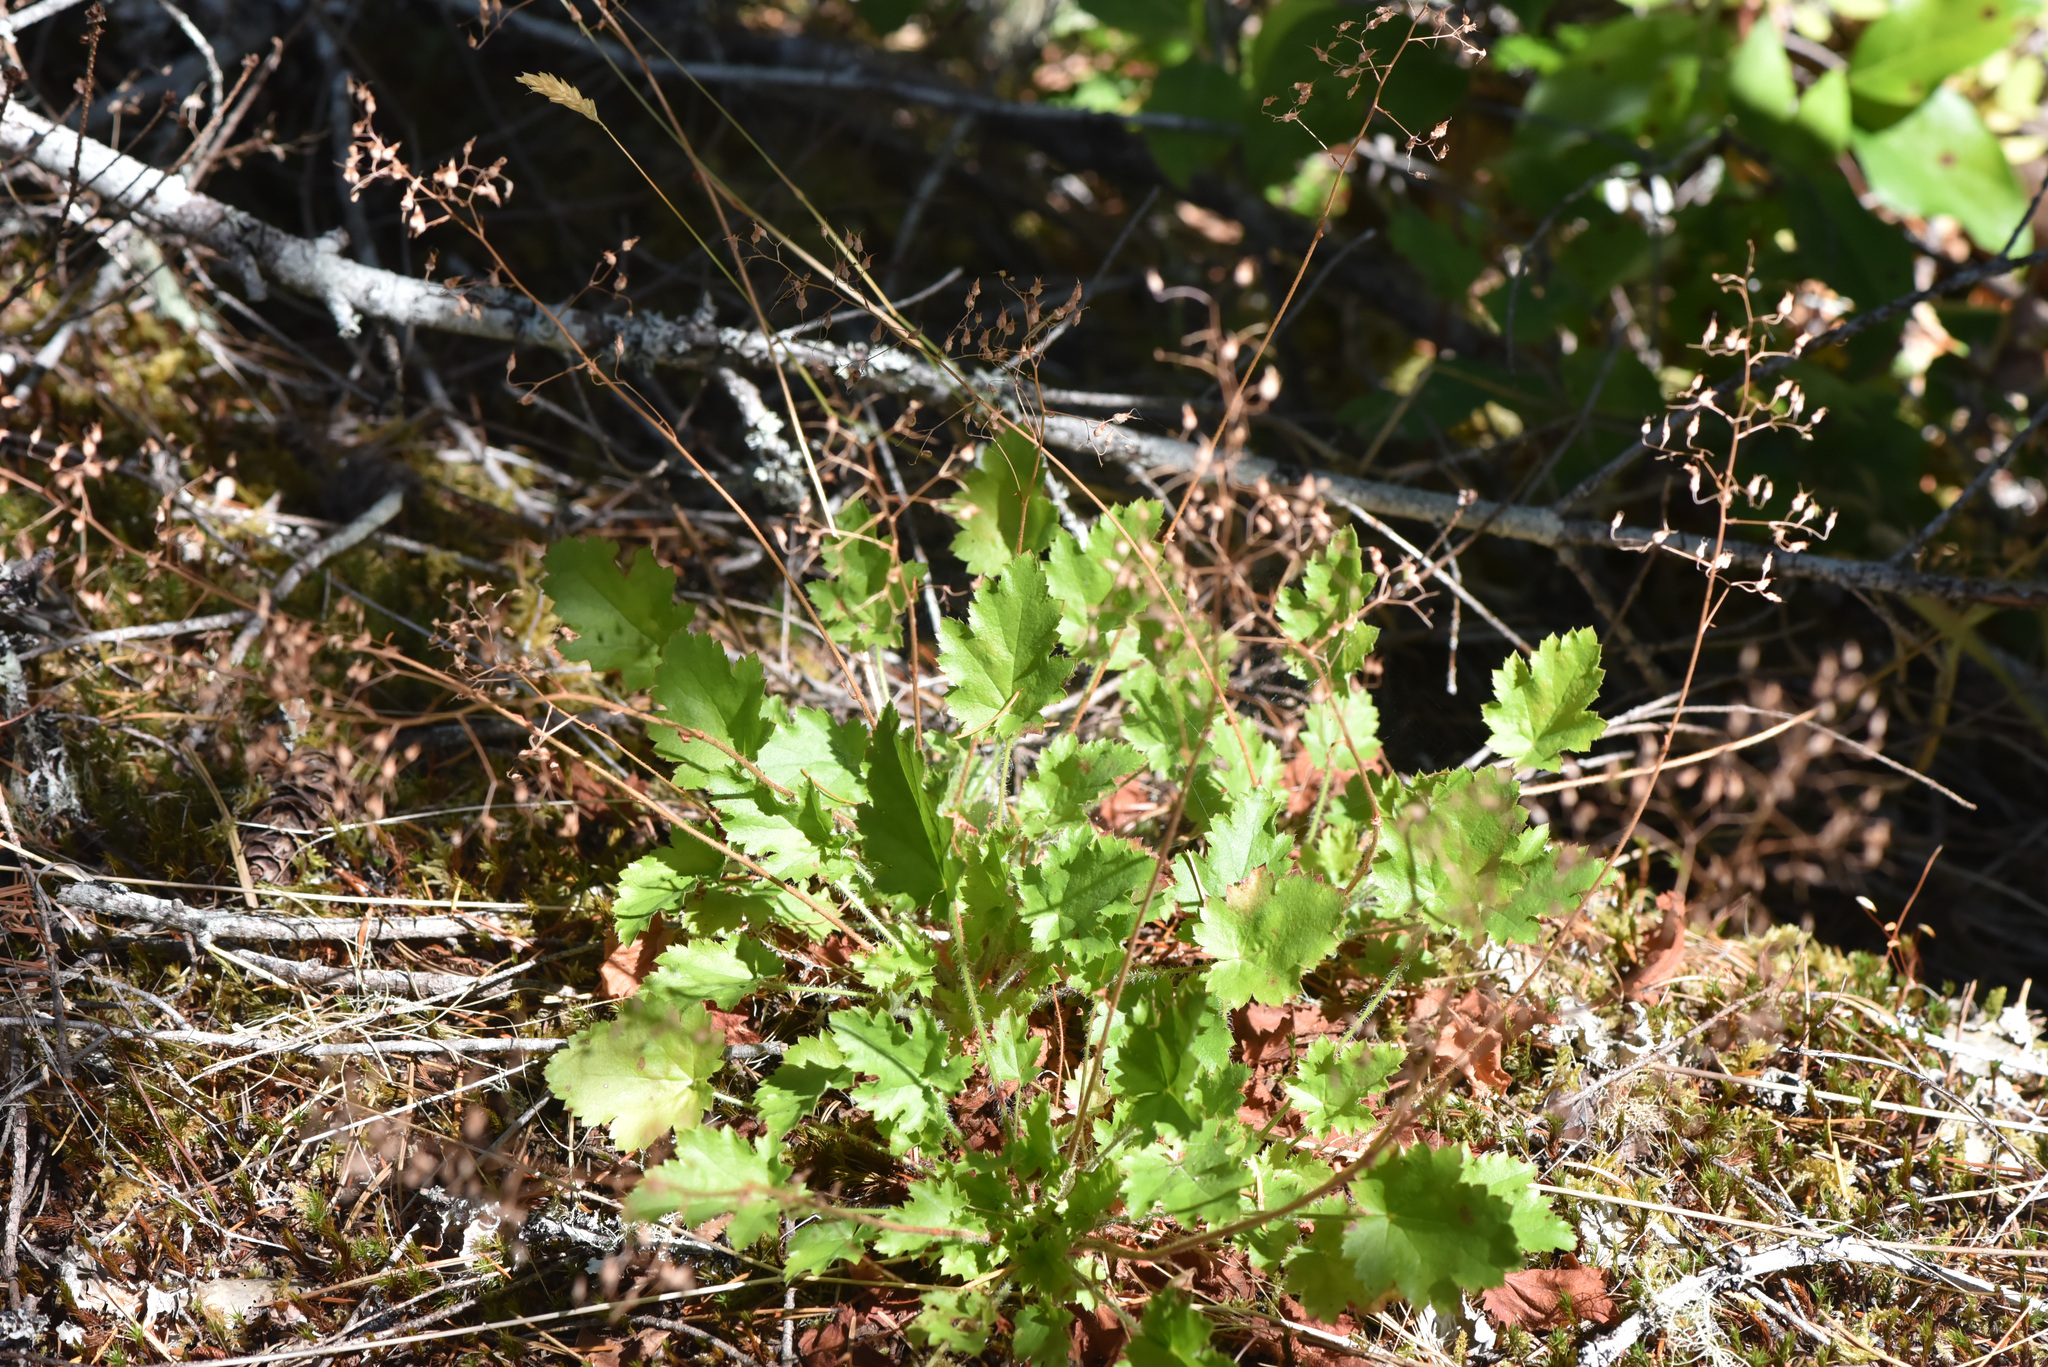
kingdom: Plantae
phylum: Tracheophyta
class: Magnoliopsida
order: Saxifragales
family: Saxifragaceae
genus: Heuchera
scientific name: Heuchera micrantha
